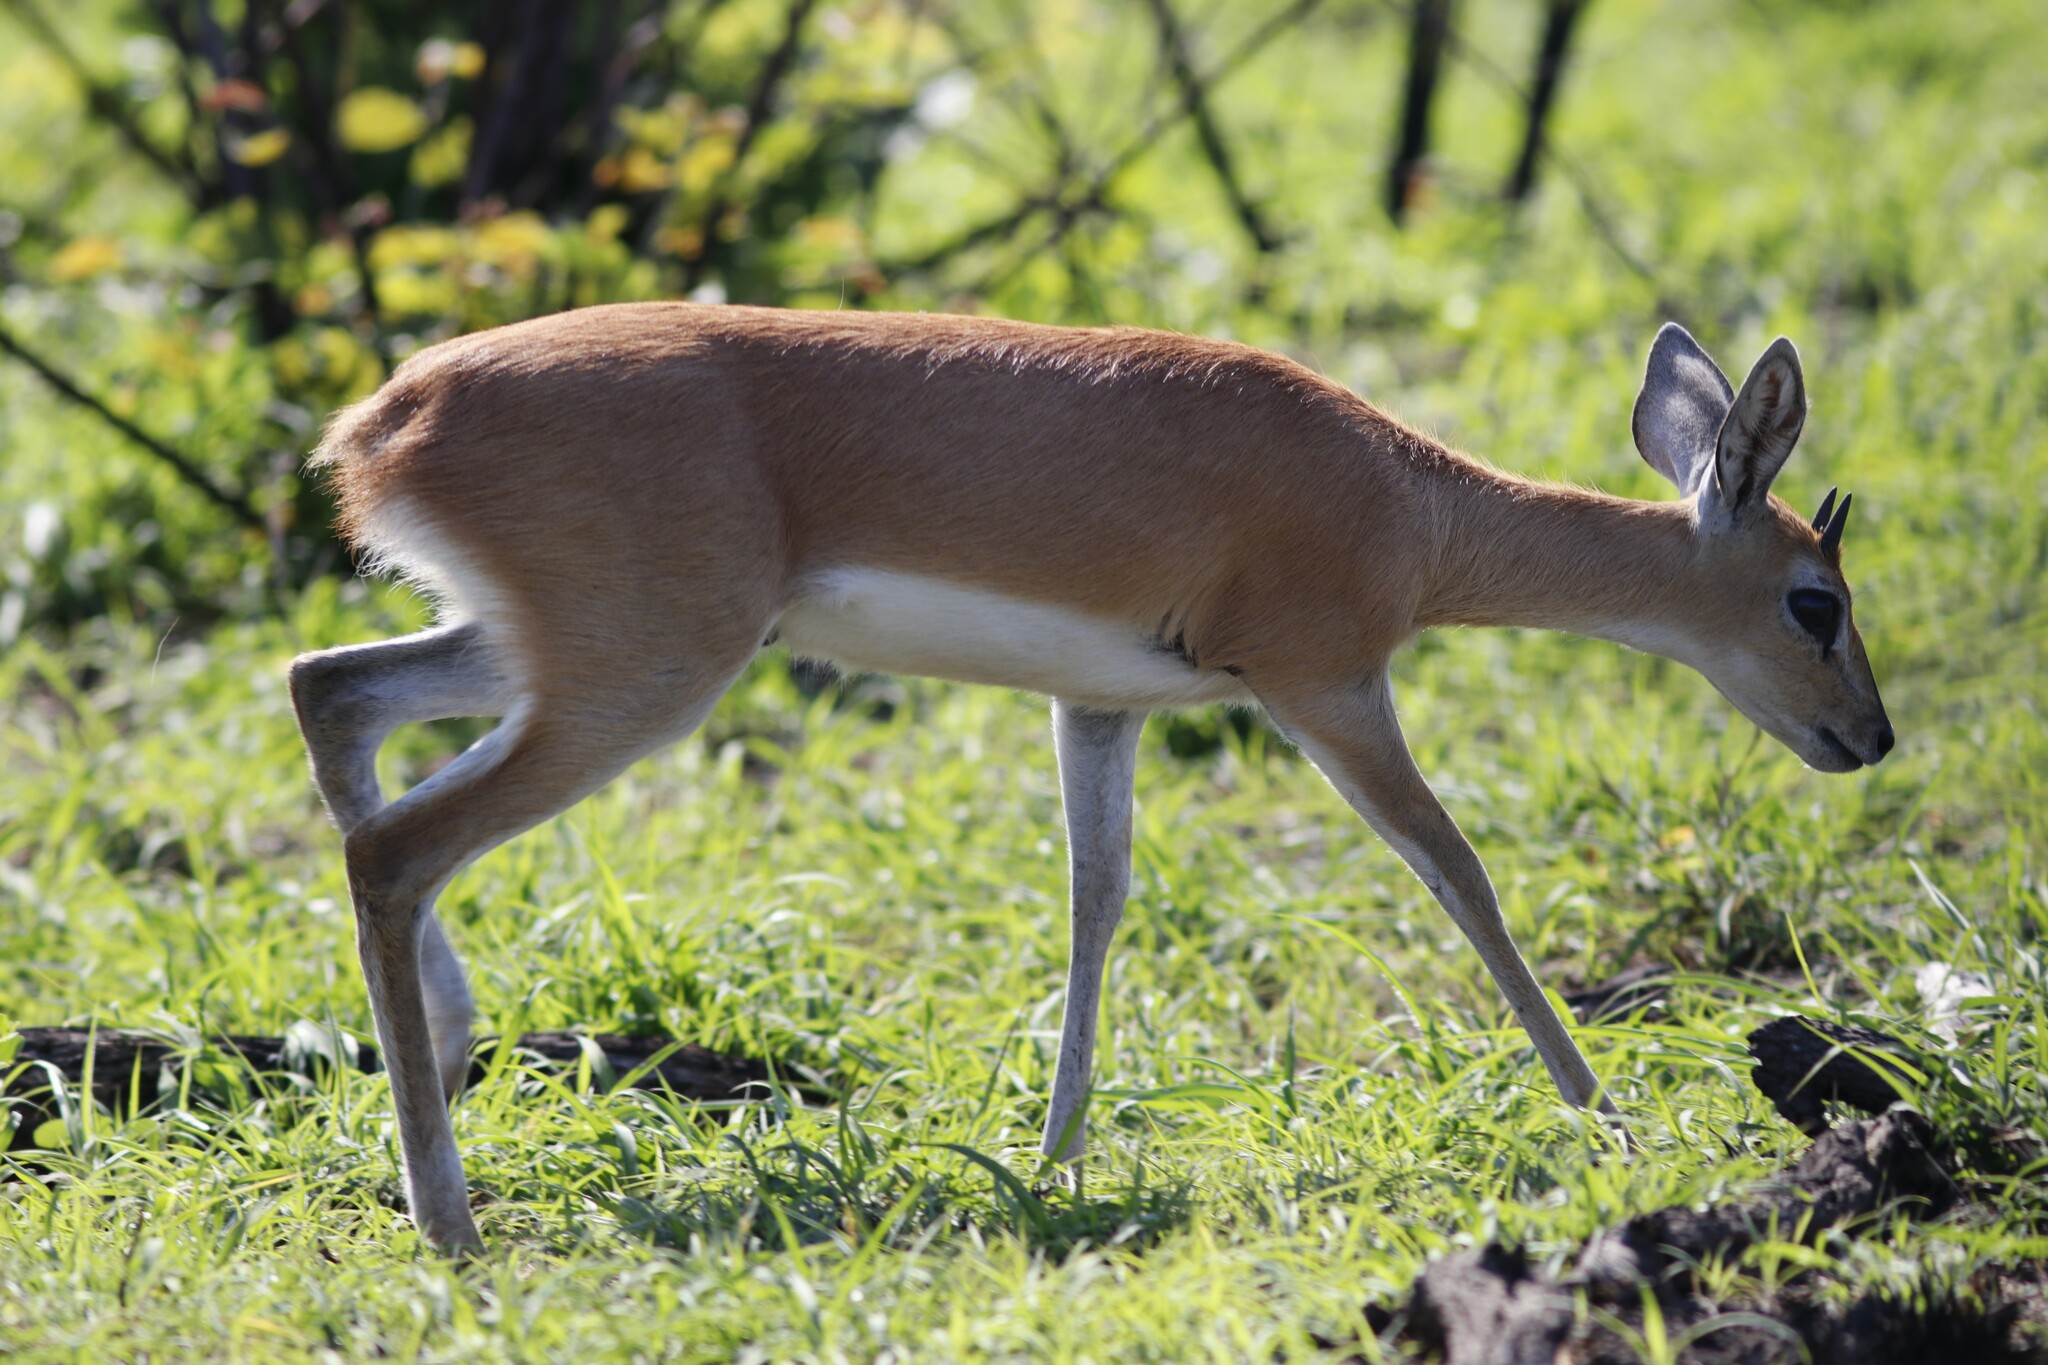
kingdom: Animalia
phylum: Chordata
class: Mammalia
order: Artiodactyla
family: Bovidae
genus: Raphicerus
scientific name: Raphicerus campestris
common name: Steenbok
